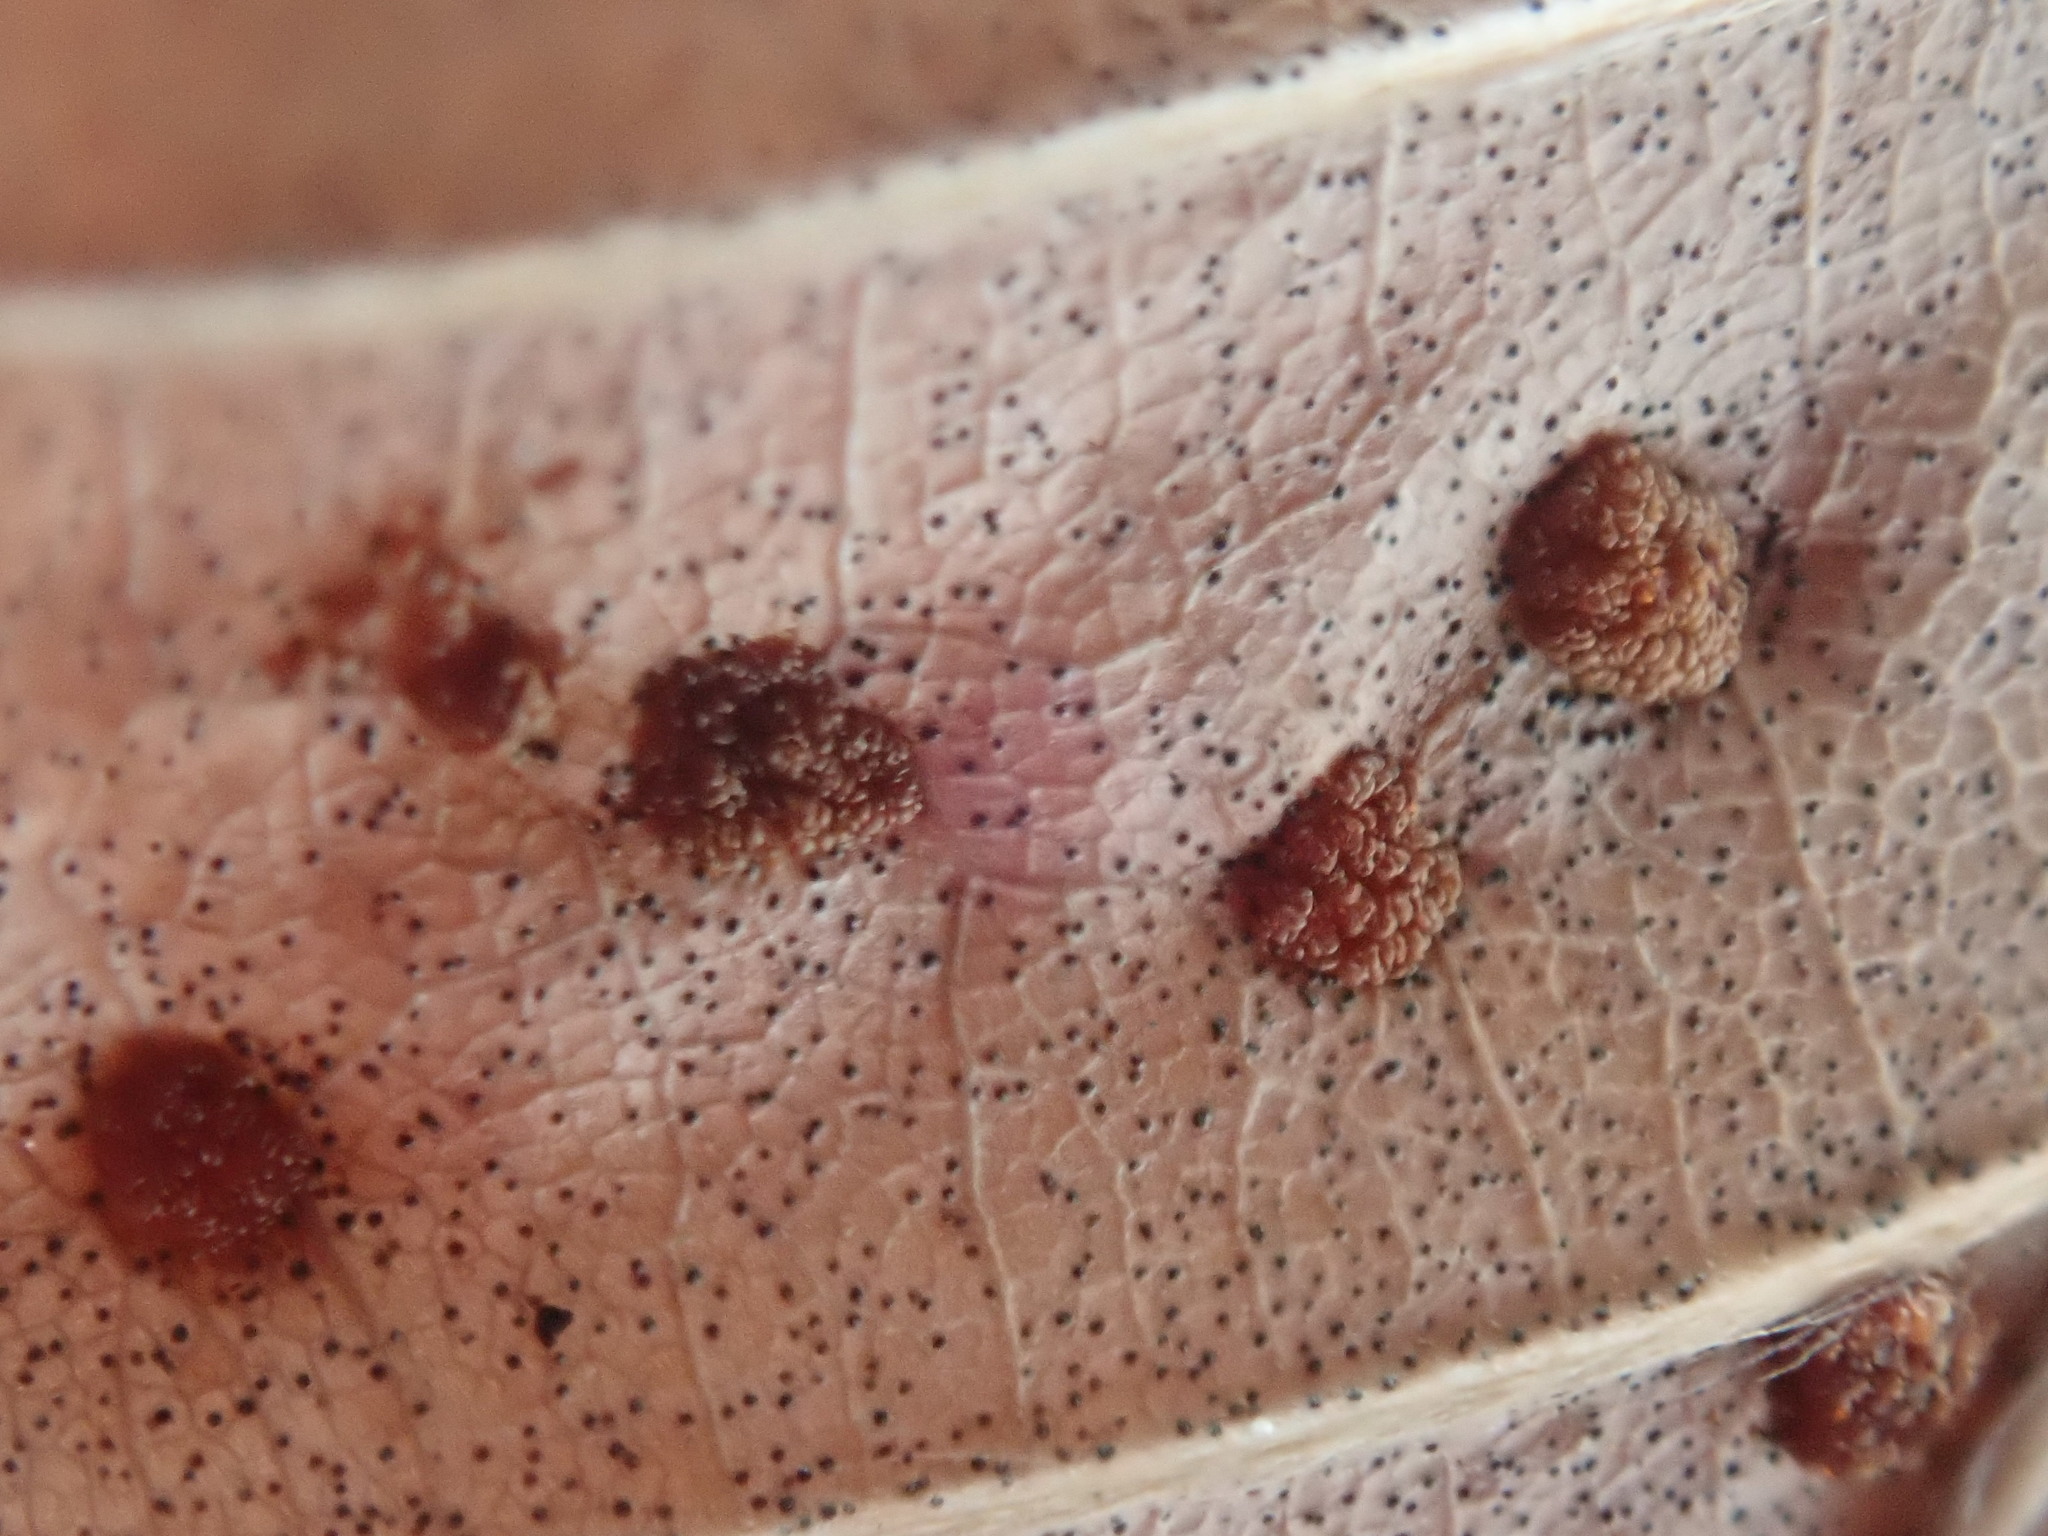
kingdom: Animalia
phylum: Arthropoda
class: Arachnida
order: Trombidiformes
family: Eriophyidae
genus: Acalitus
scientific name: Acalitus
